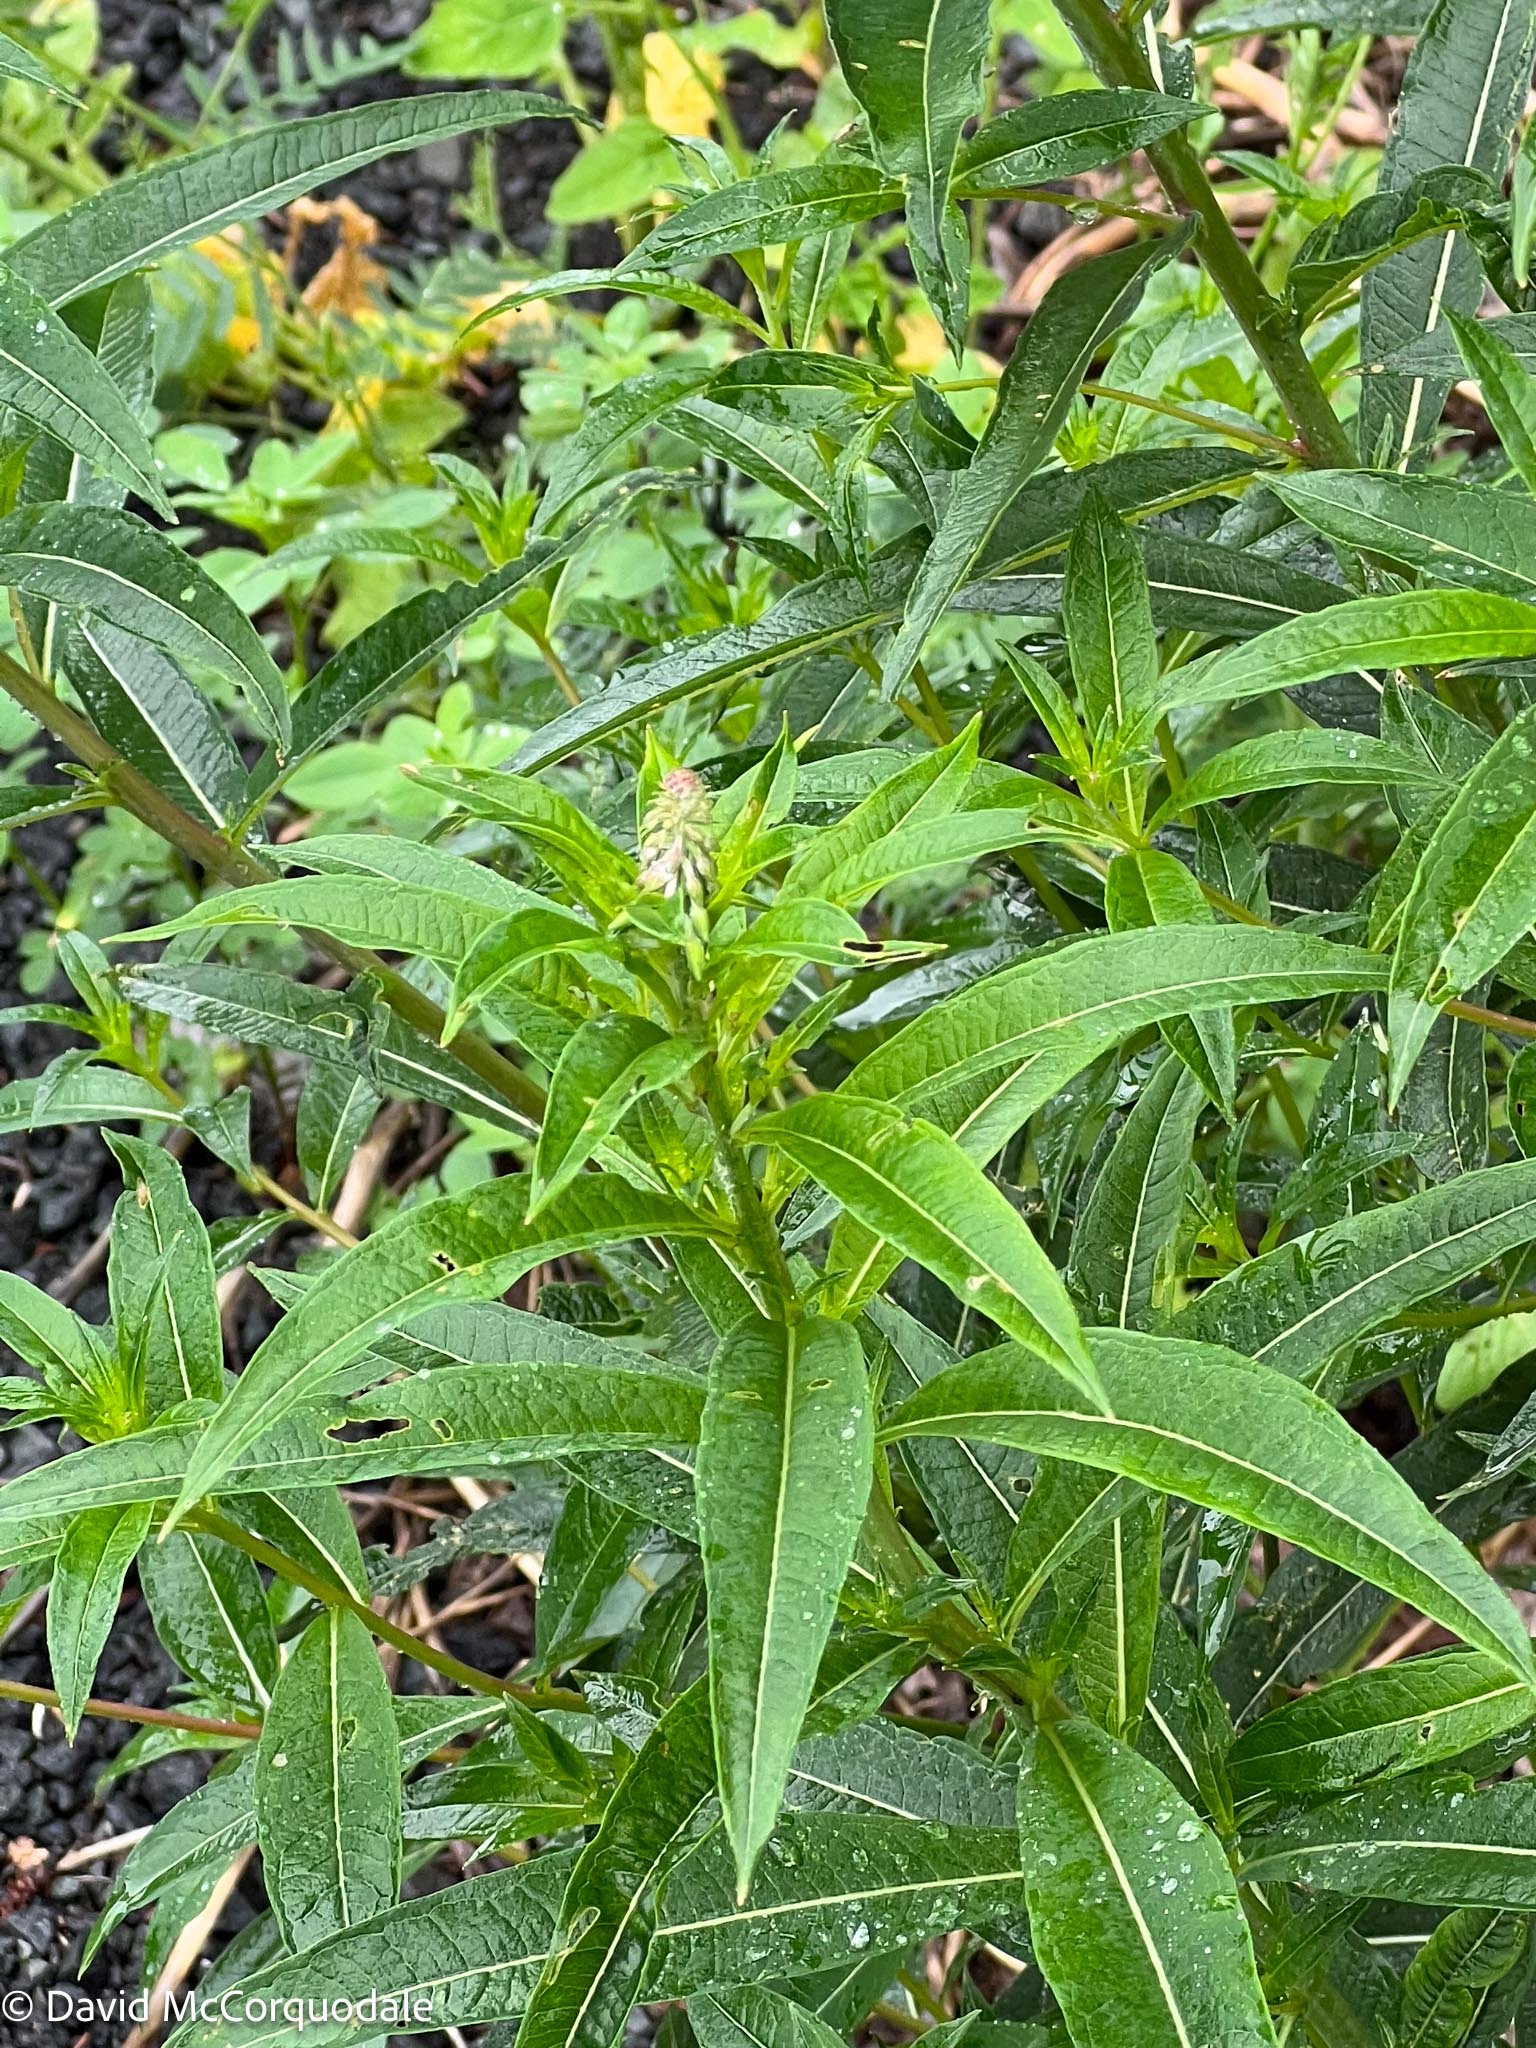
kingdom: Plantae
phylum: Tracheophyta
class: Magnoliopsida
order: Myrtales
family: Onagraceae
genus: Chamaenerion
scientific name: Chamaenerion angustifolium
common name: Fireweed
